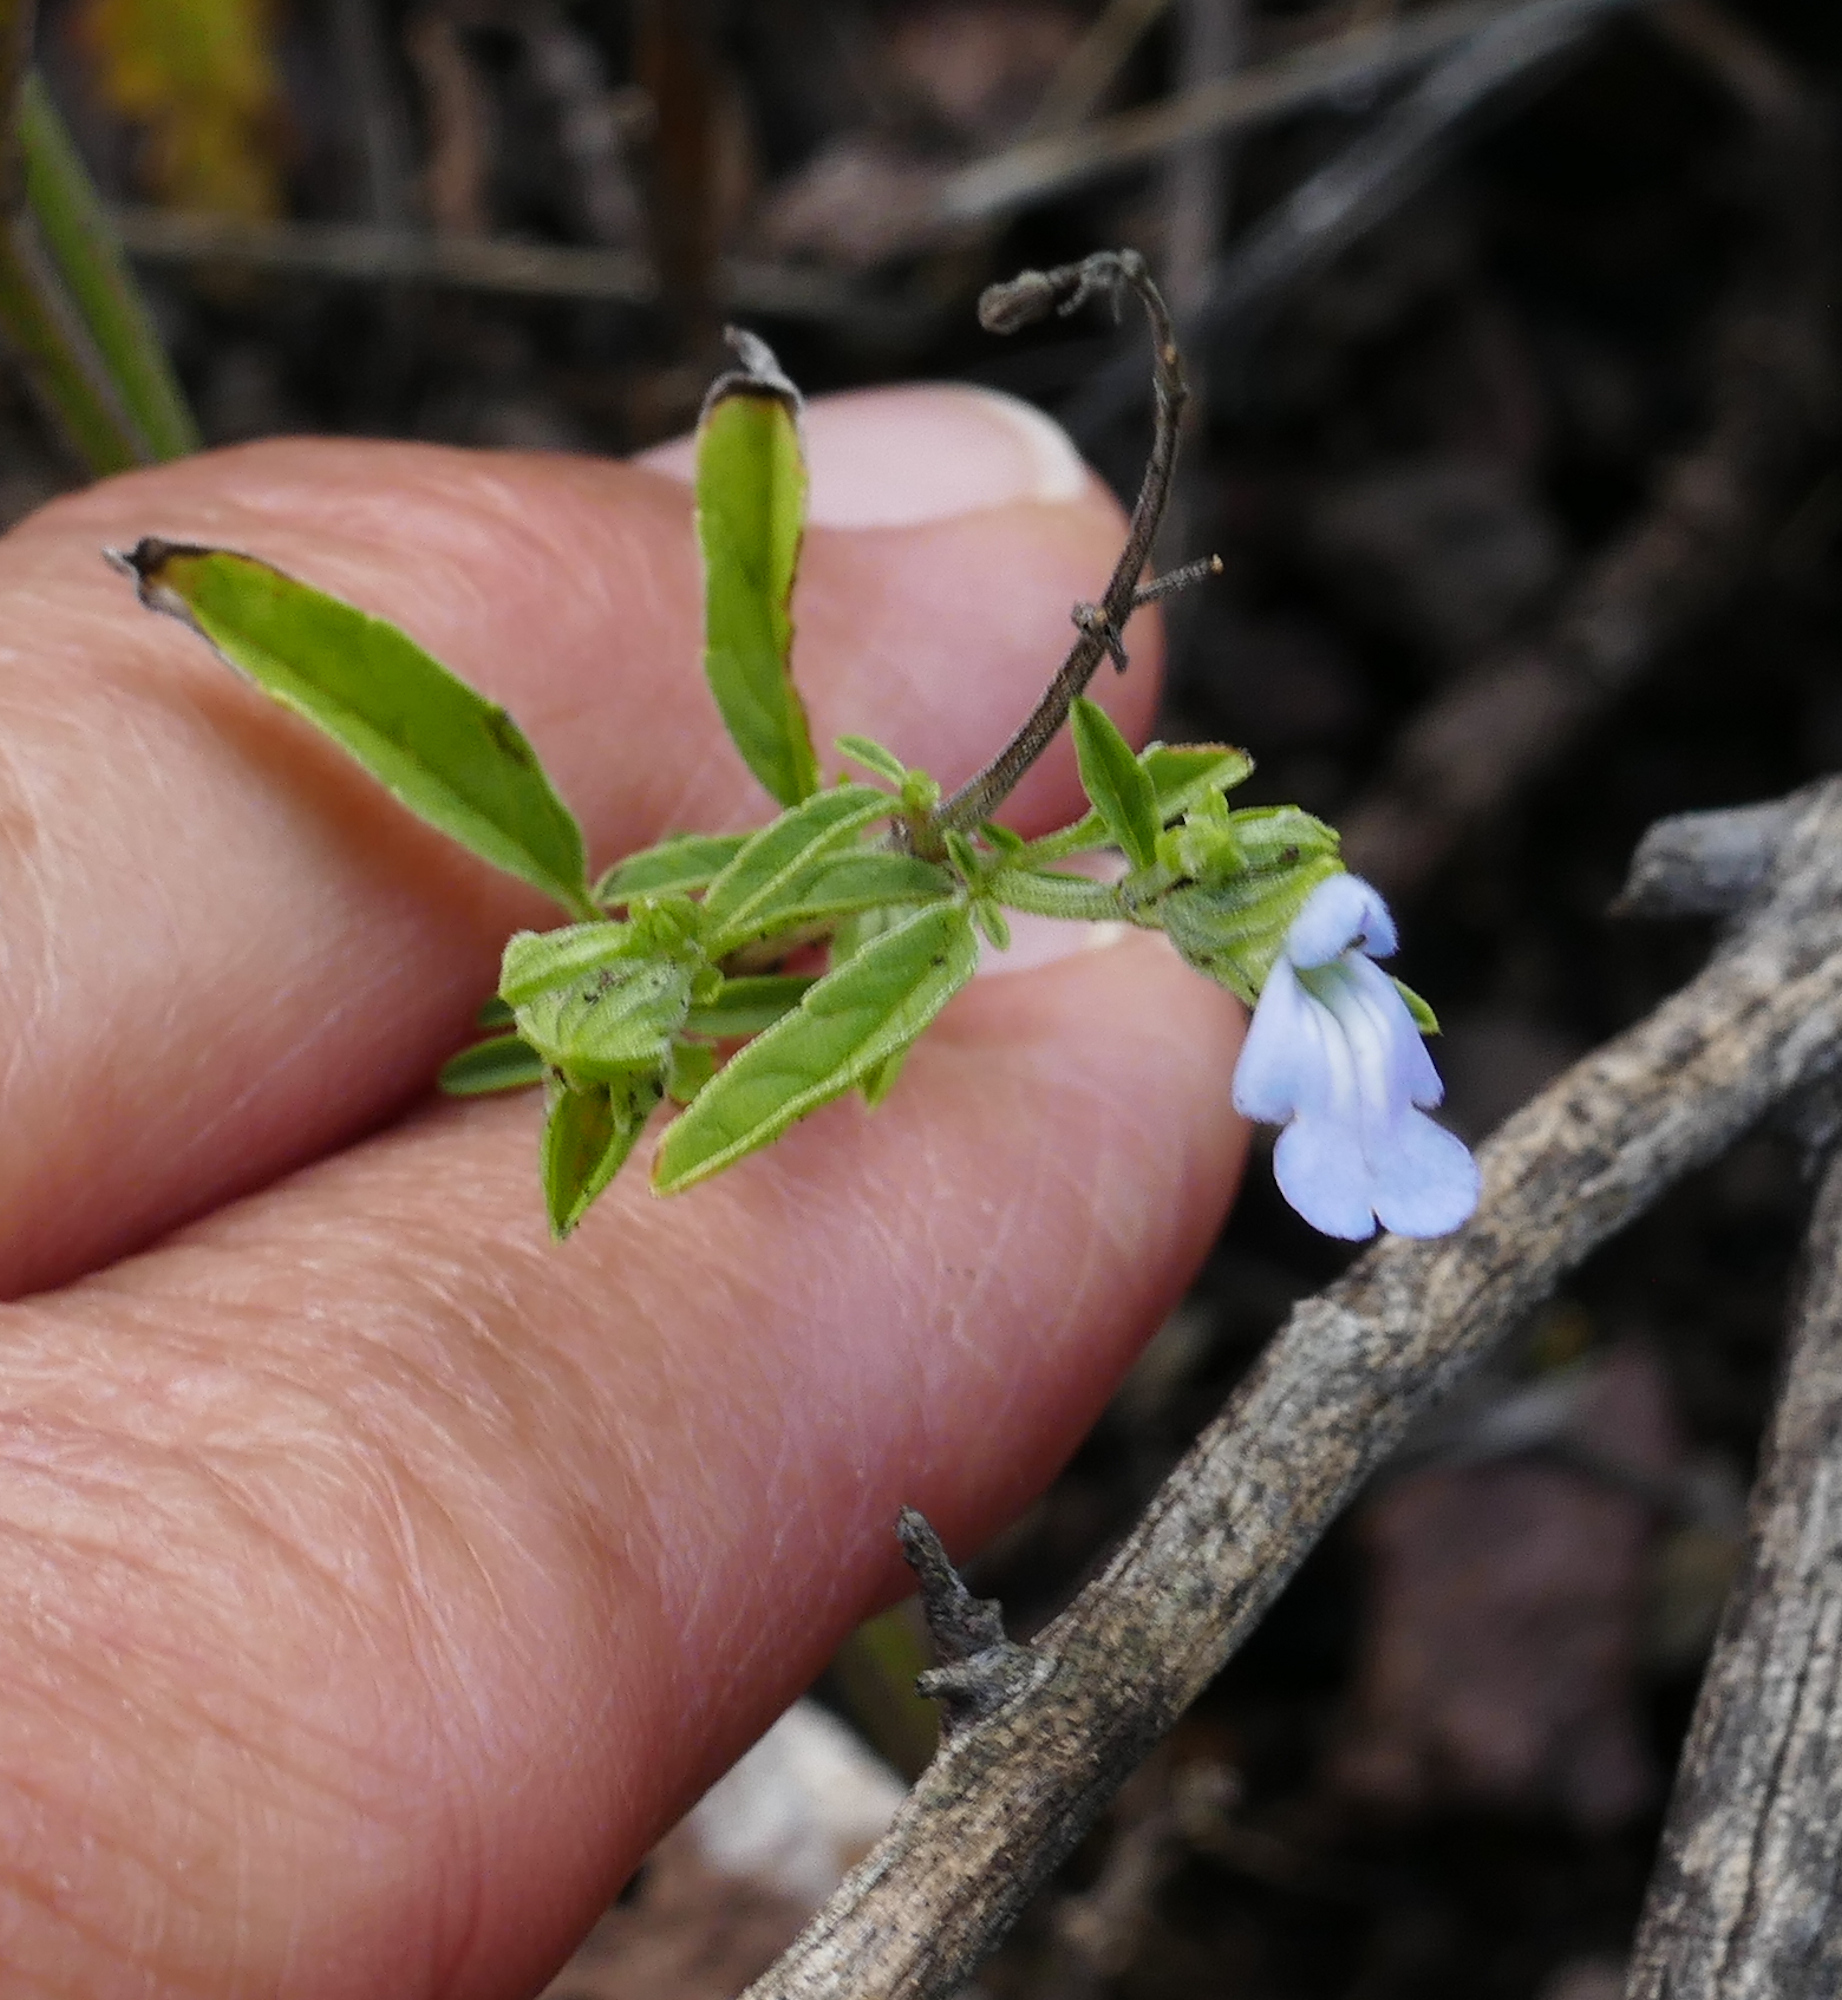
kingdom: Plantae
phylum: Tracheophyta
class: Magnoliopsida
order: Lamiales
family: Lamiaceae
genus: Salvia
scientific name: Salvia reflexa
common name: Mintweed
